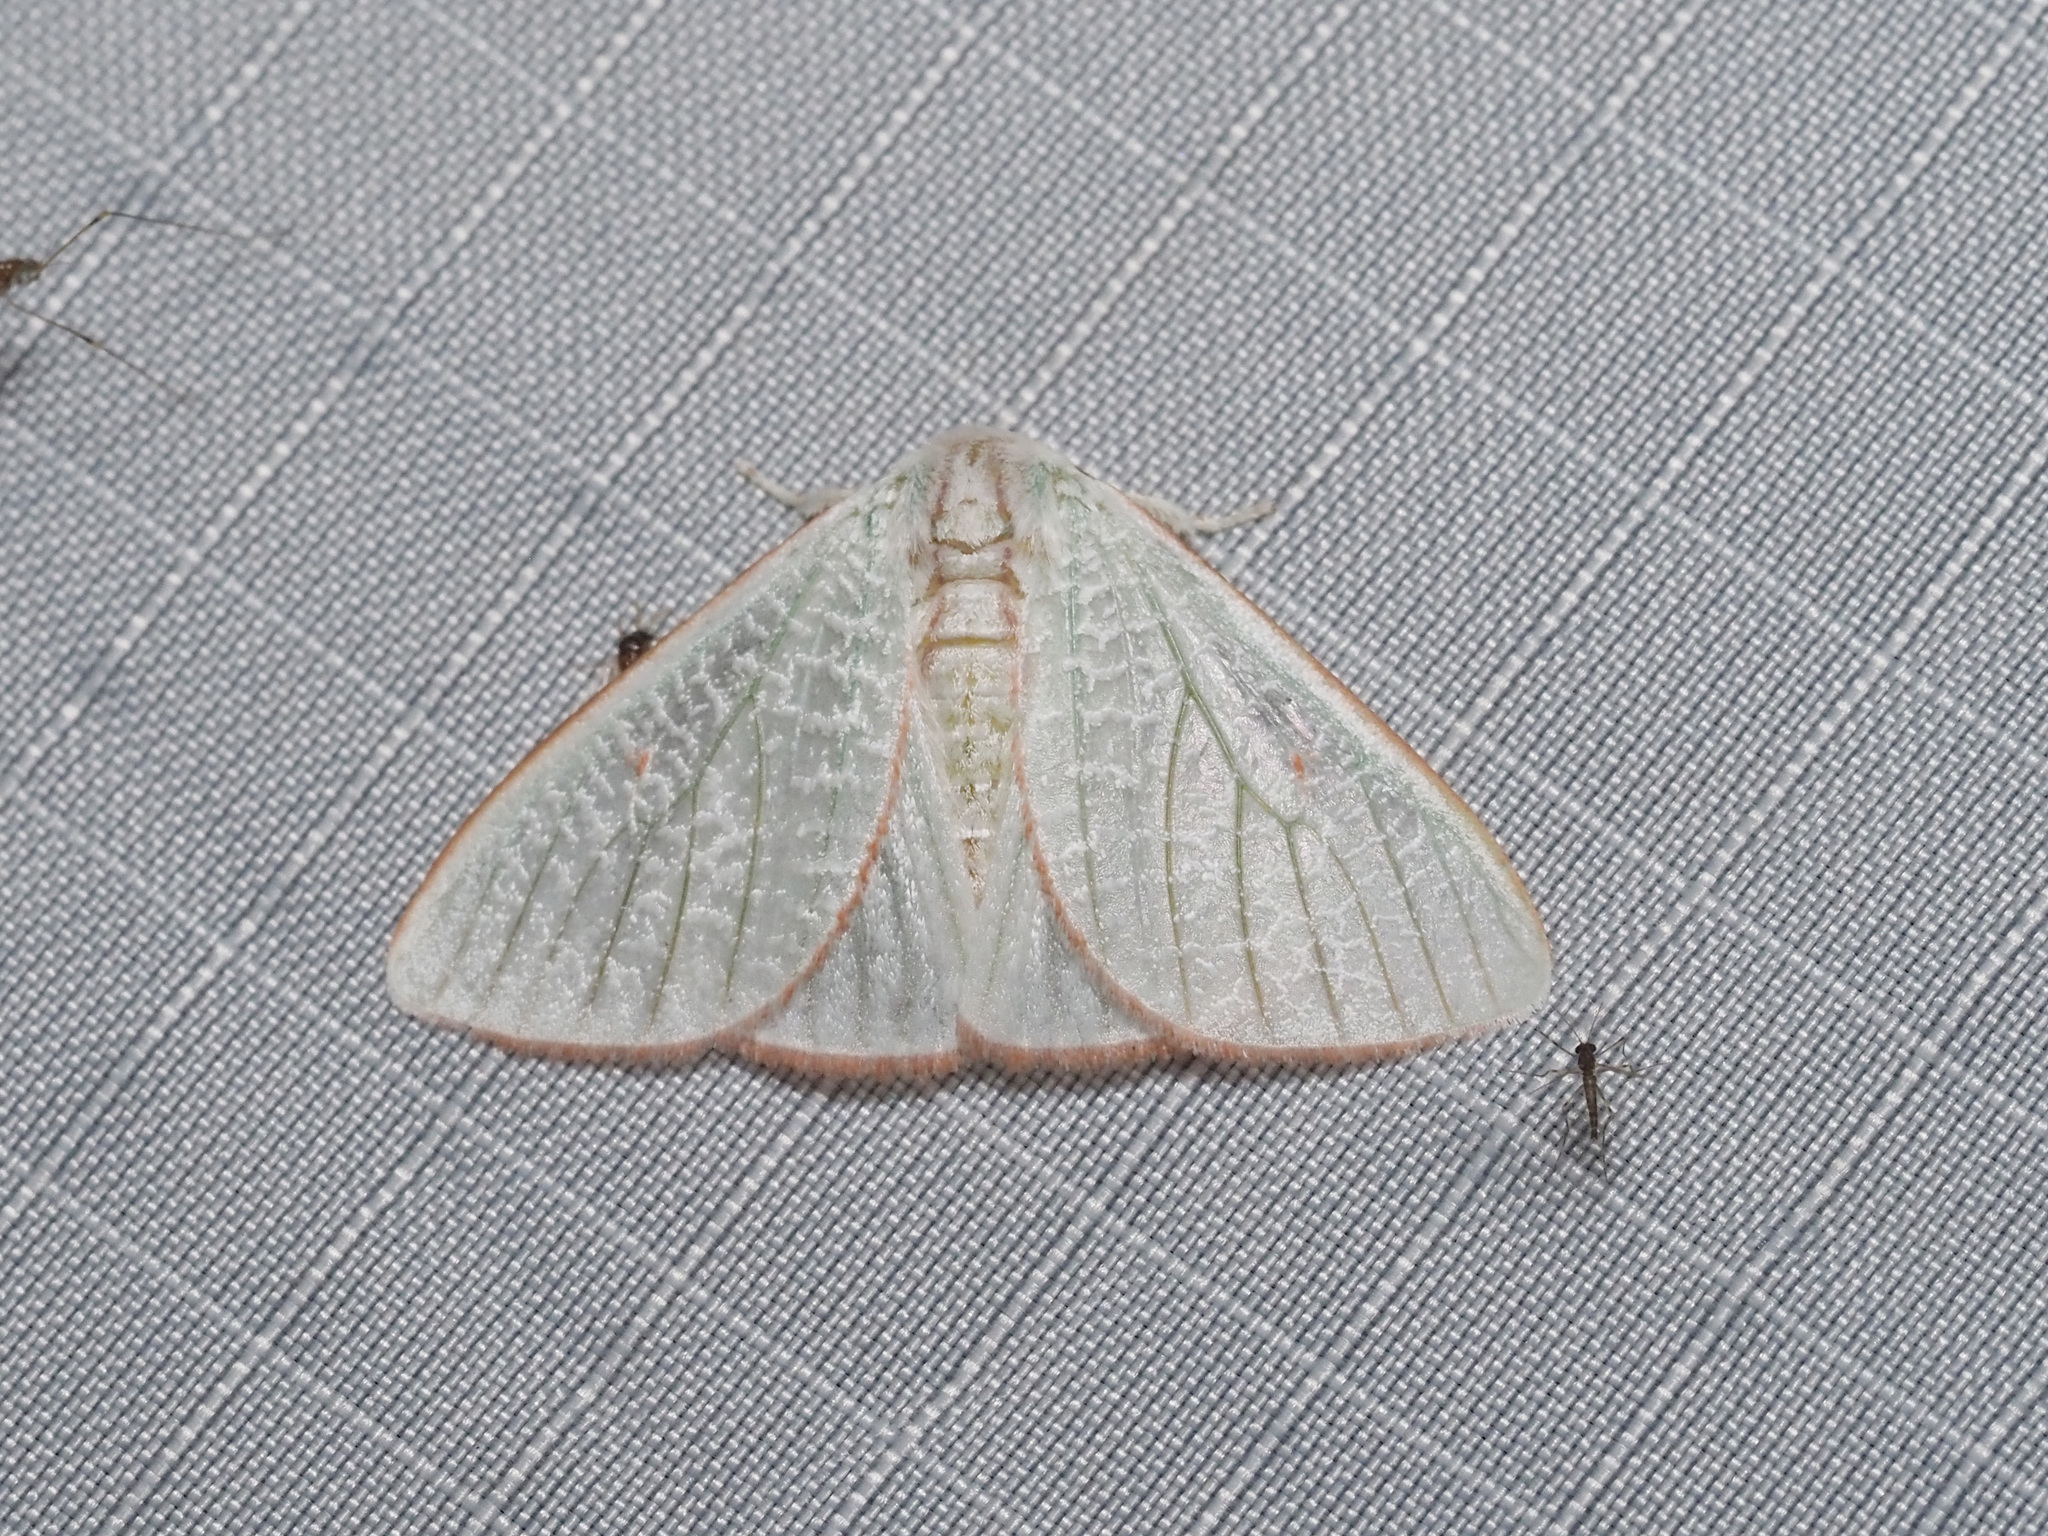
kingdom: Animalia
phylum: Arthropoda
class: Insecta
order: Lepidoptera
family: Erebidae
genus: Arctornis
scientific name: Arctornis egerina
